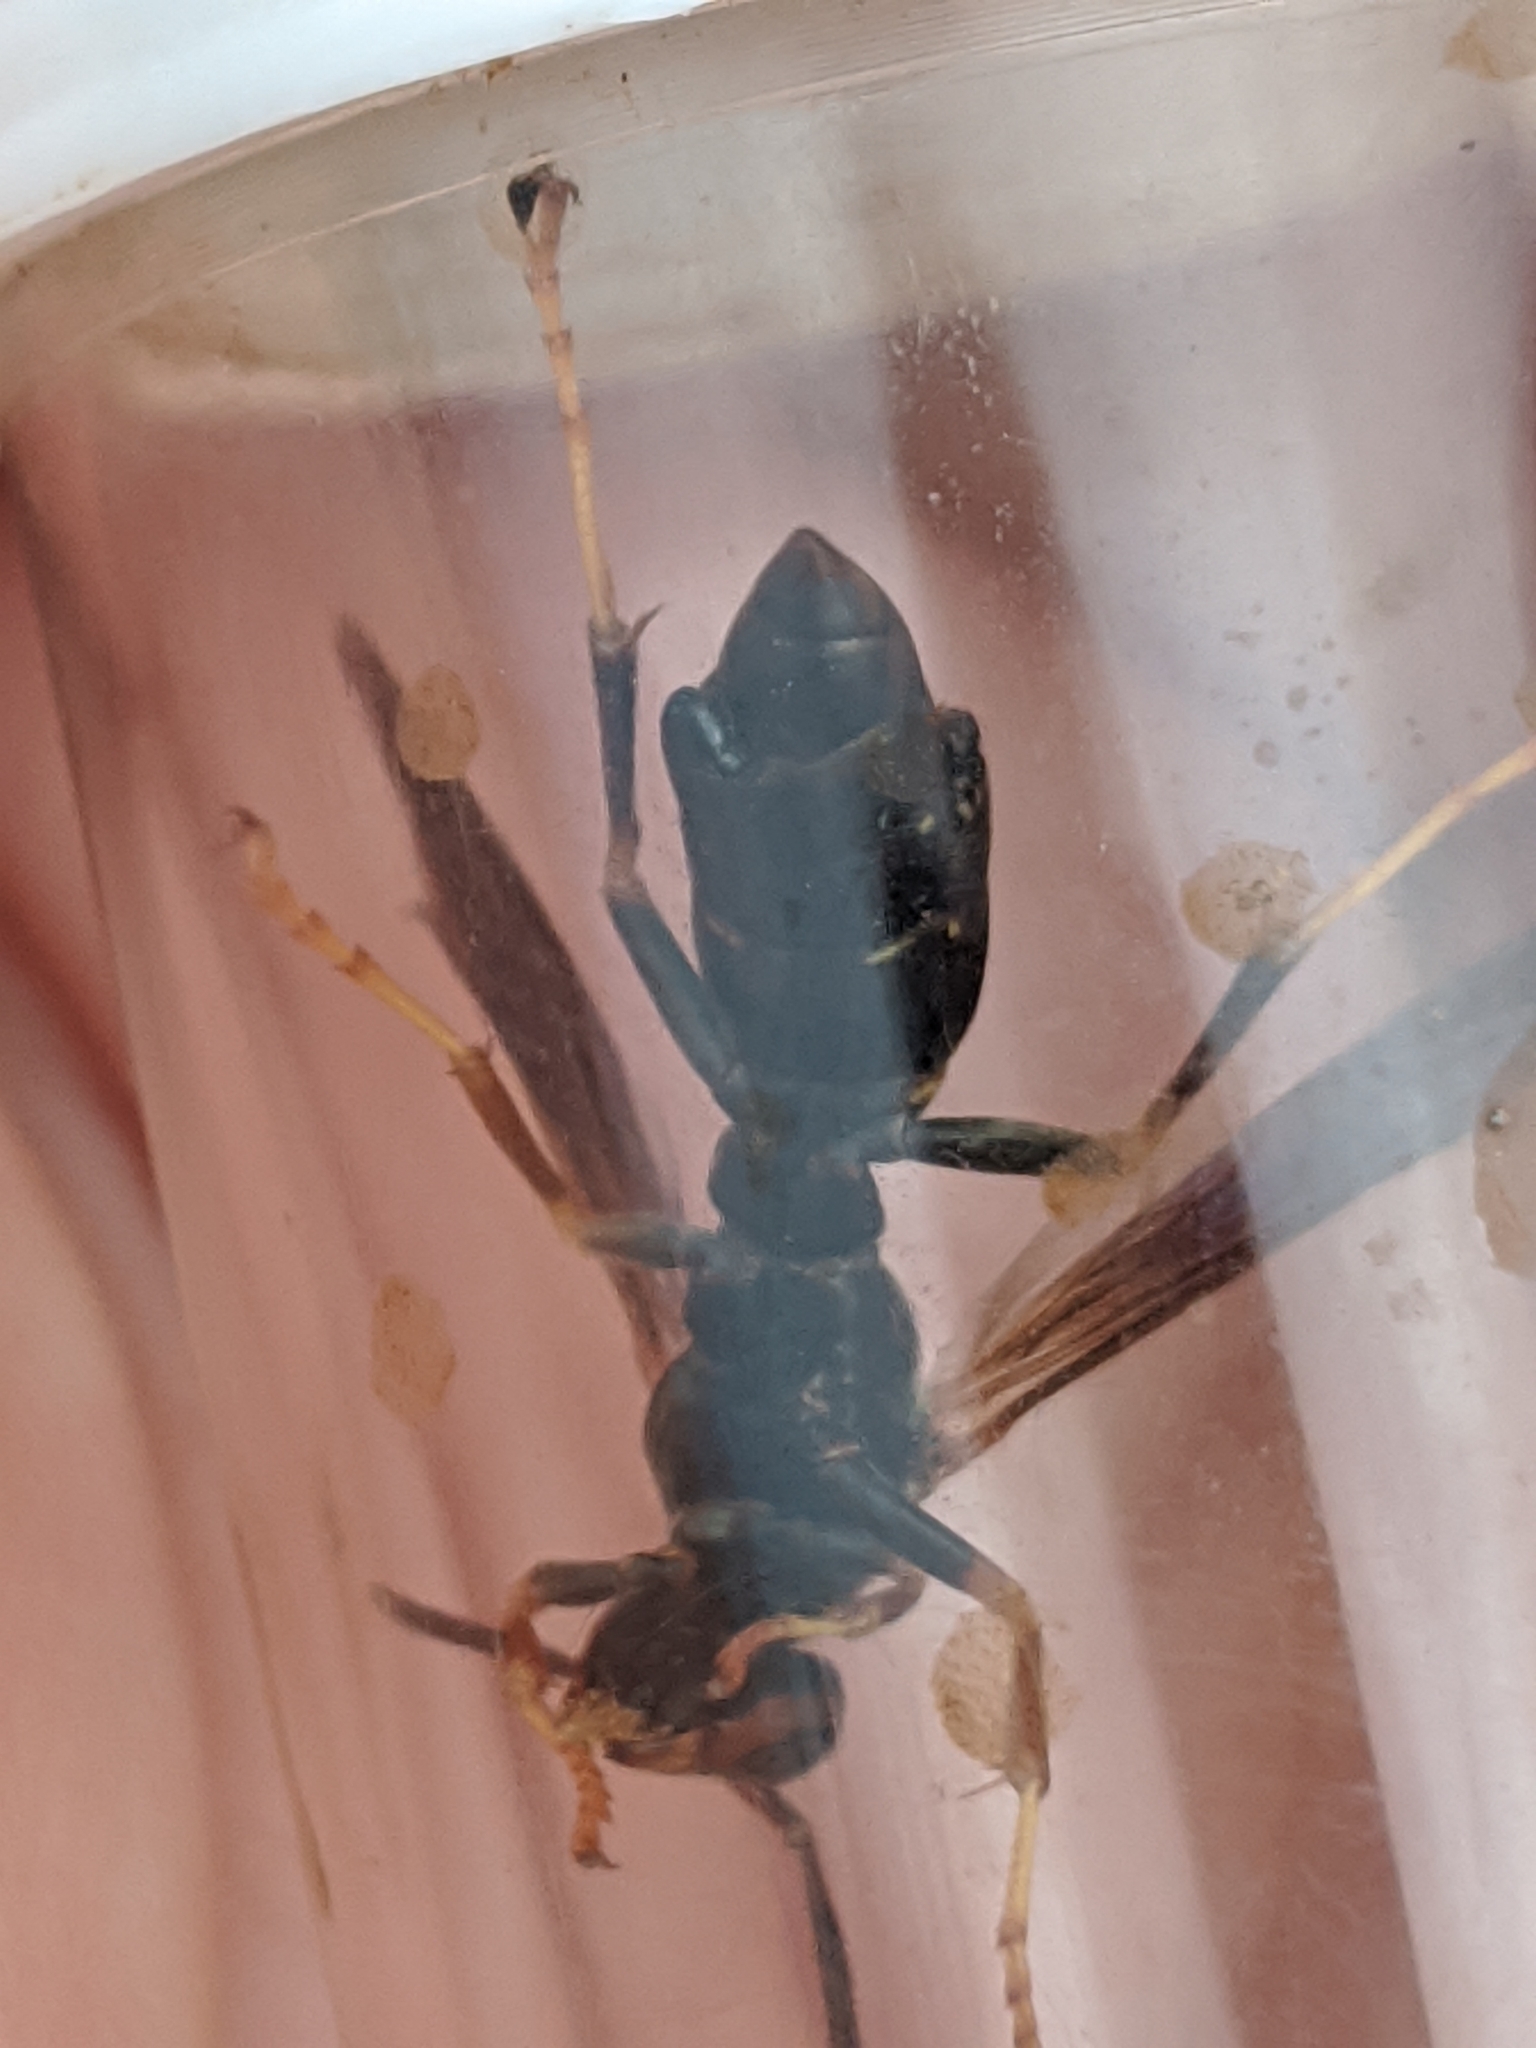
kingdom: Animalia
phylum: Arthropoda
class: Insecta
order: Strepsiptera
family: Xenidae
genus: Xenos
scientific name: Xenos pecki
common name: Twisted wing parasite
